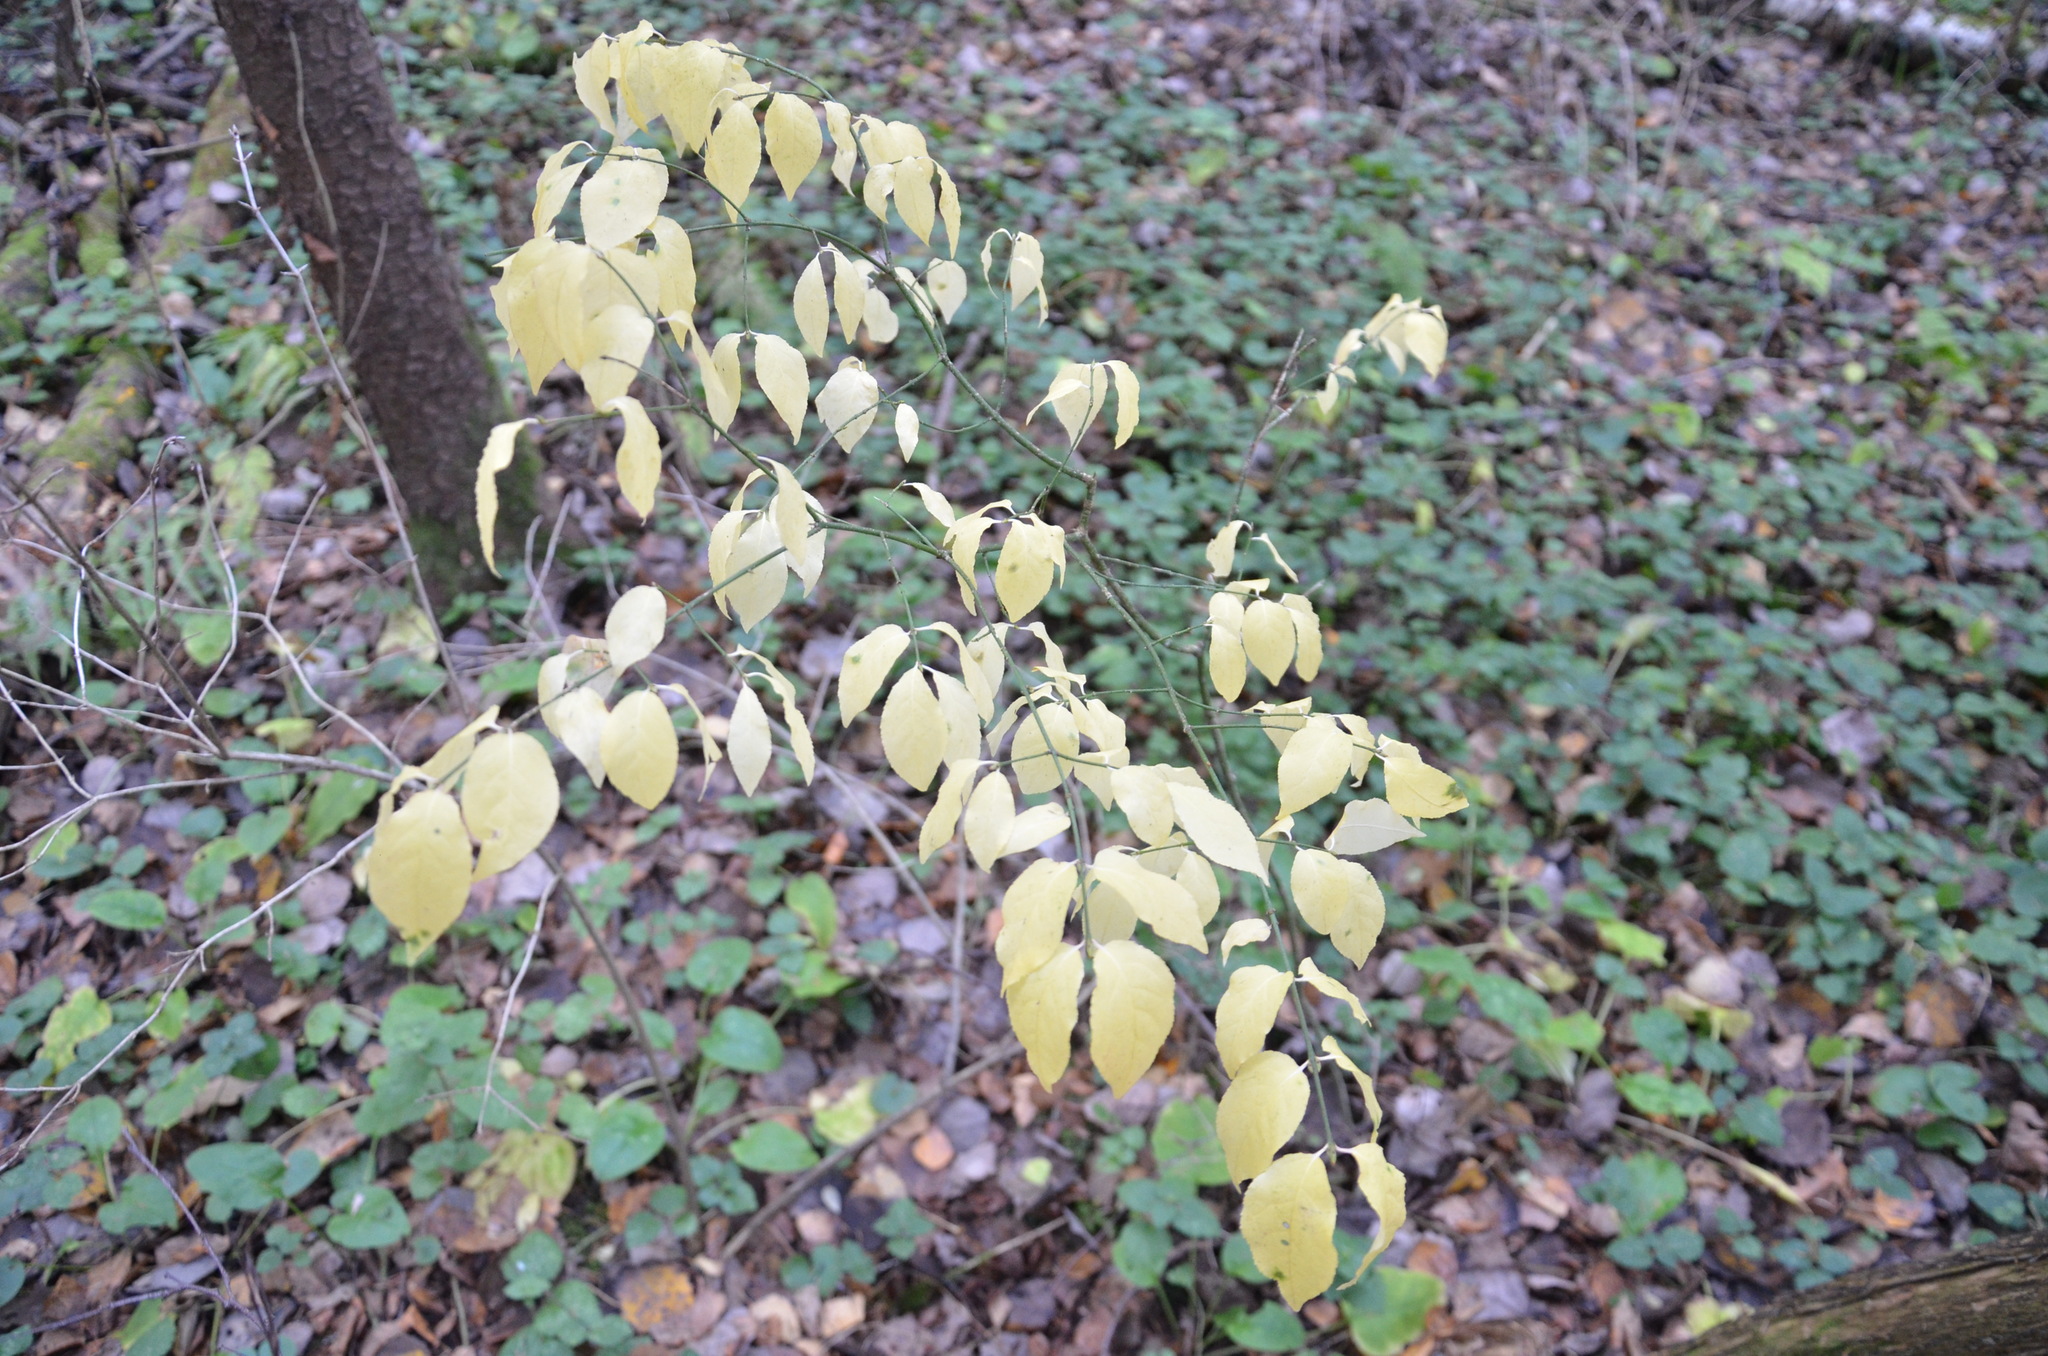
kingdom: Plantae
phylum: Tracheophyta
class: Magnoliopsida
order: Celastrales
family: Celastraceae
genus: Euonymus
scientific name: Euonymus verrucosus
